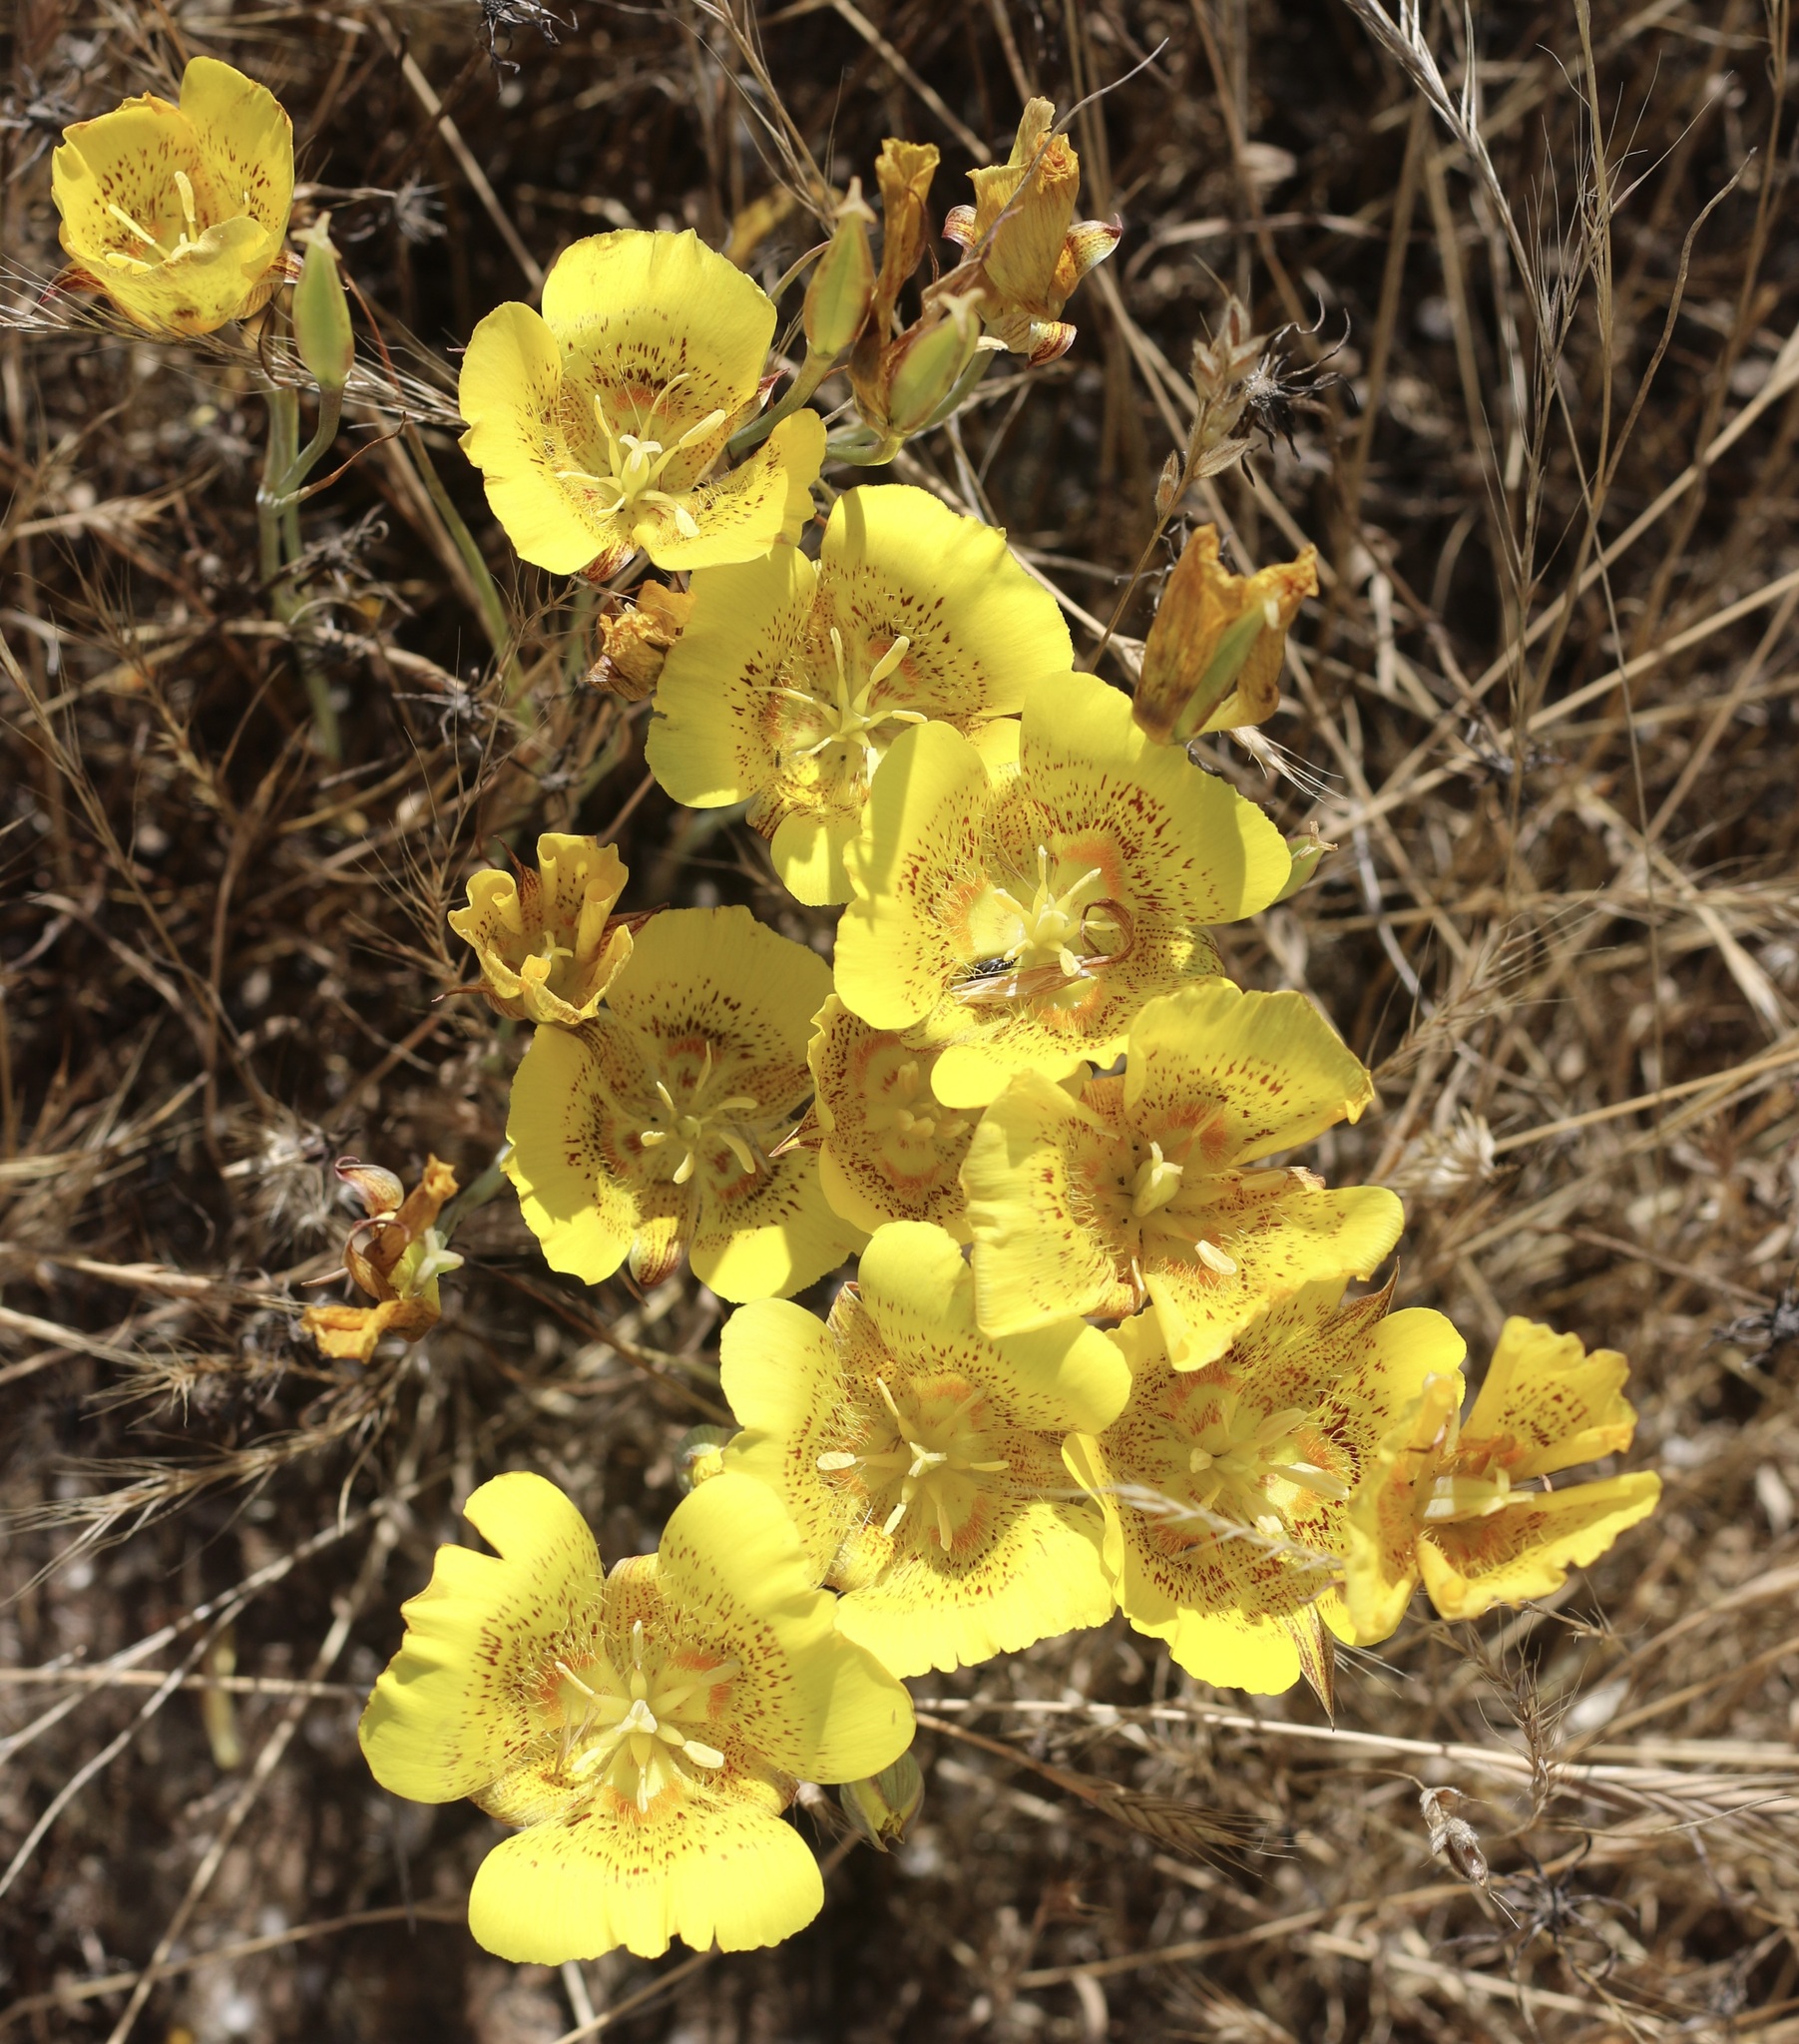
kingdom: Plantae
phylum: Tracheophyta
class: Liliopsida
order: Liliales
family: Liliaceae
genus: Calochortus
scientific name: Calochortus luteus
